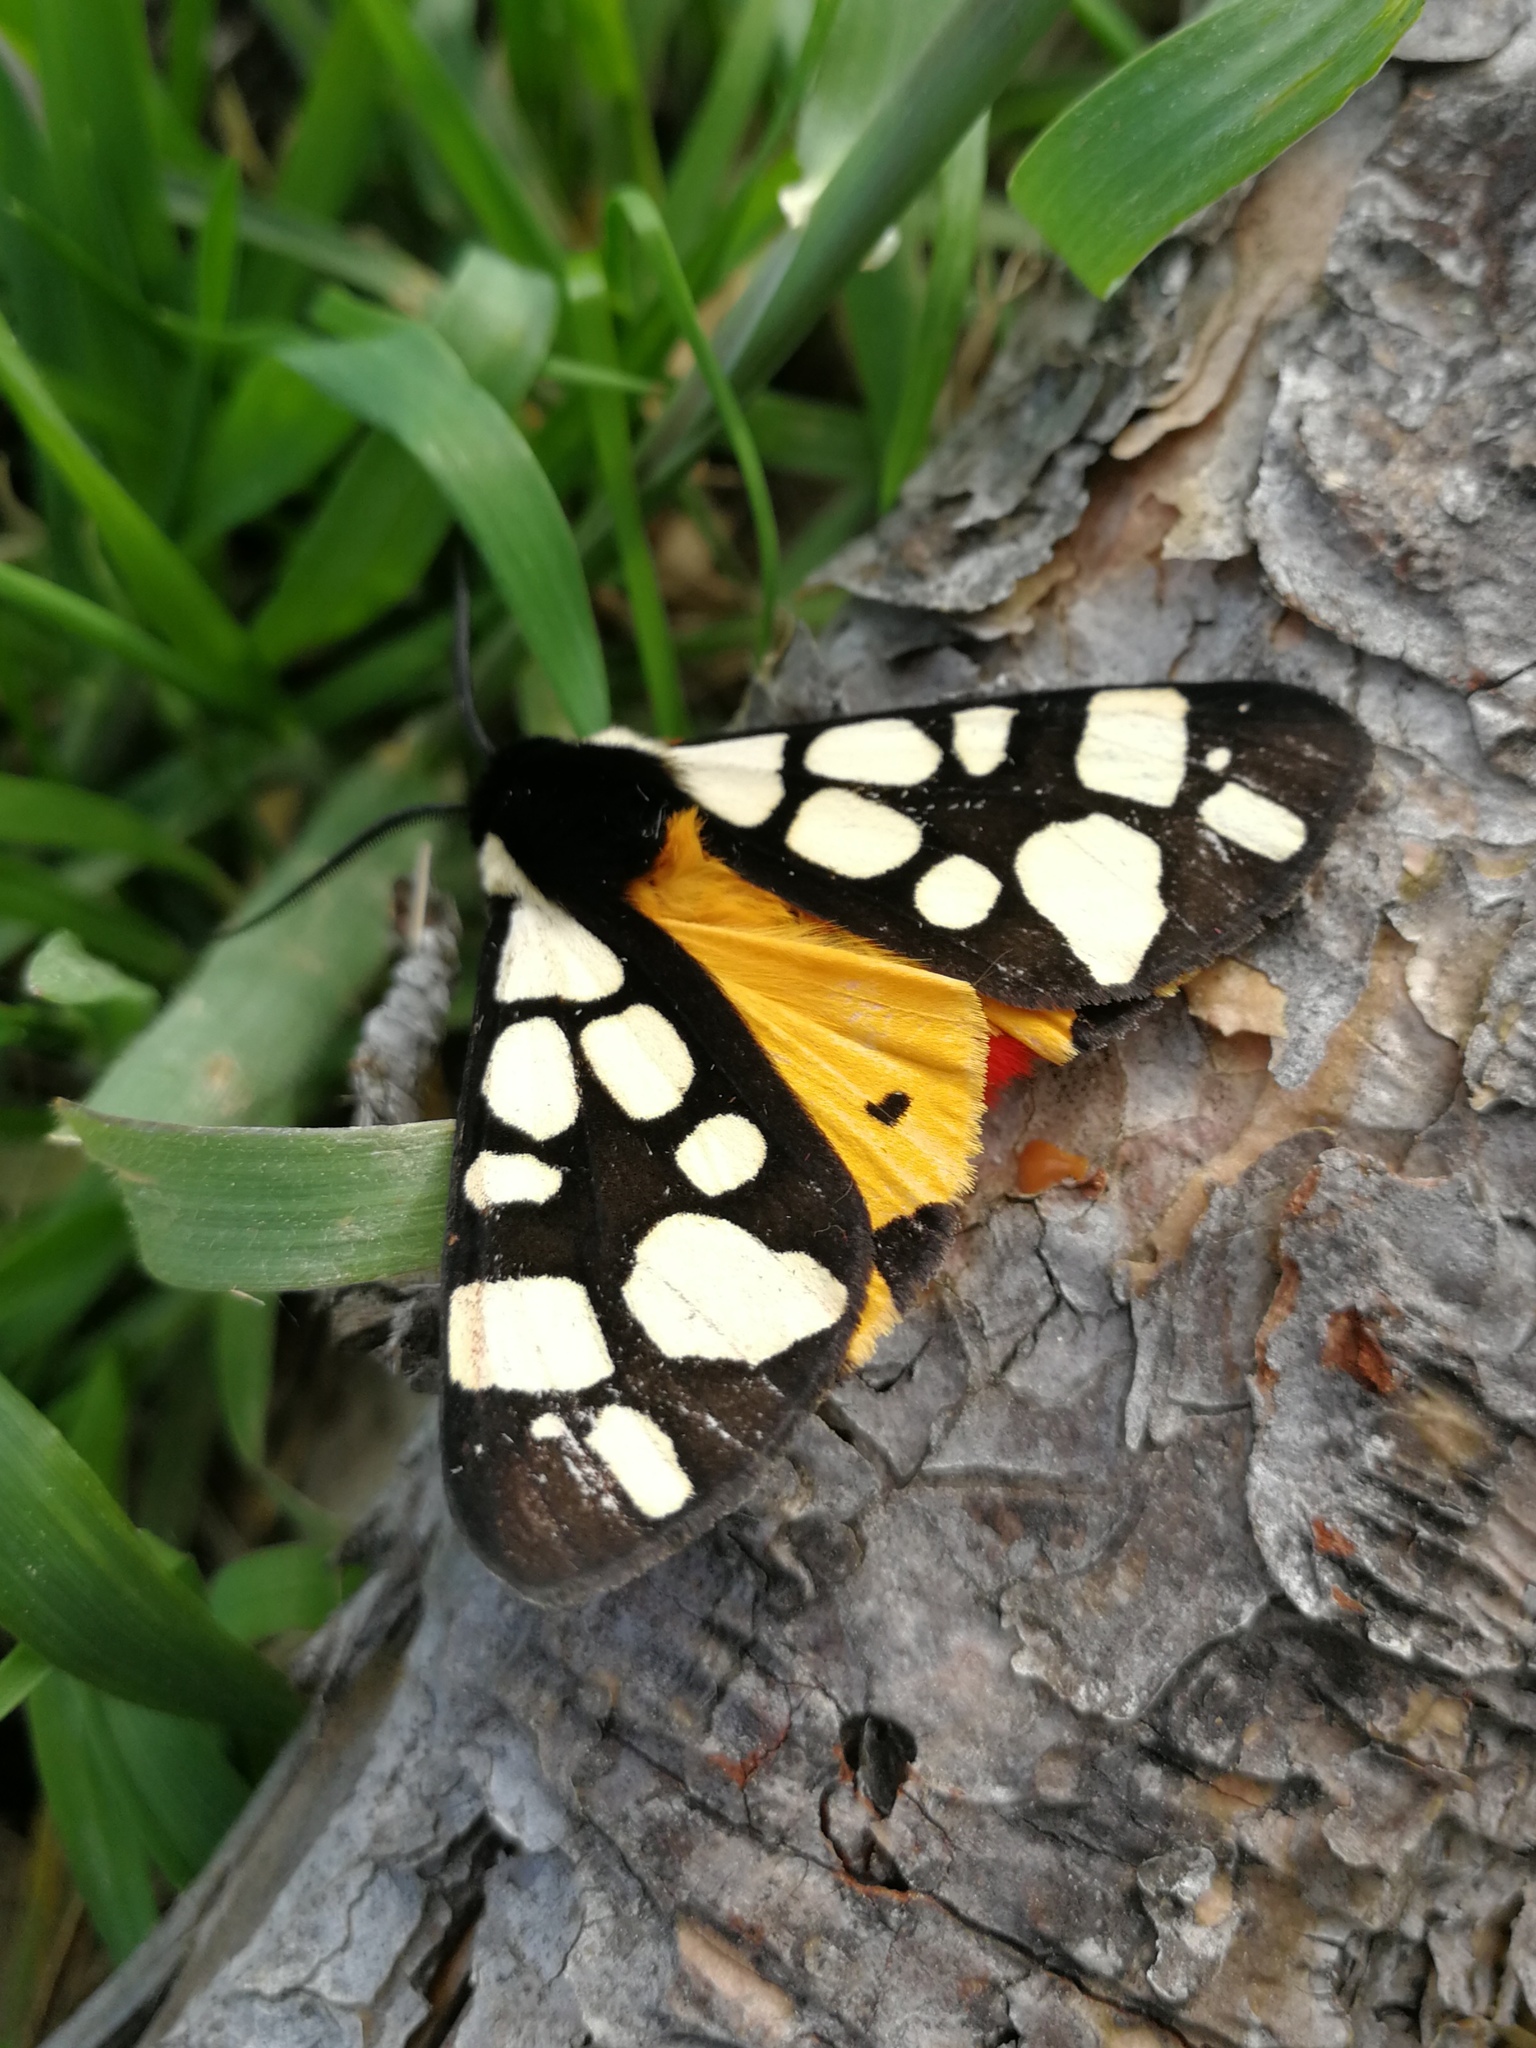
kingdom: Animalia
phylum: Arthropoda
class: Insecta
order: Lepidoptera
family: Erebidae
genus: Epicallia
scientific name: Epicallia villica
